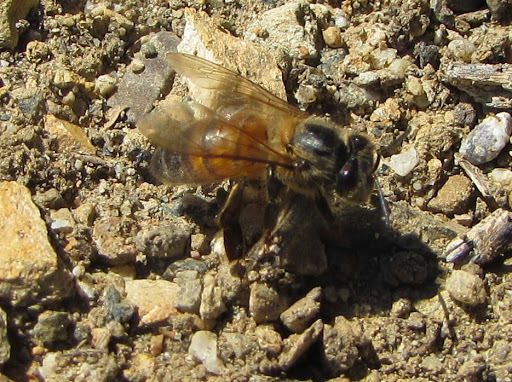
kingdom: Animalia
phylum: Arthropoda
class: Insecta
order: Hymenoptera
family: Apidae
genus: Apis
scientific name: Apis mellifera
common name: Honey bee
